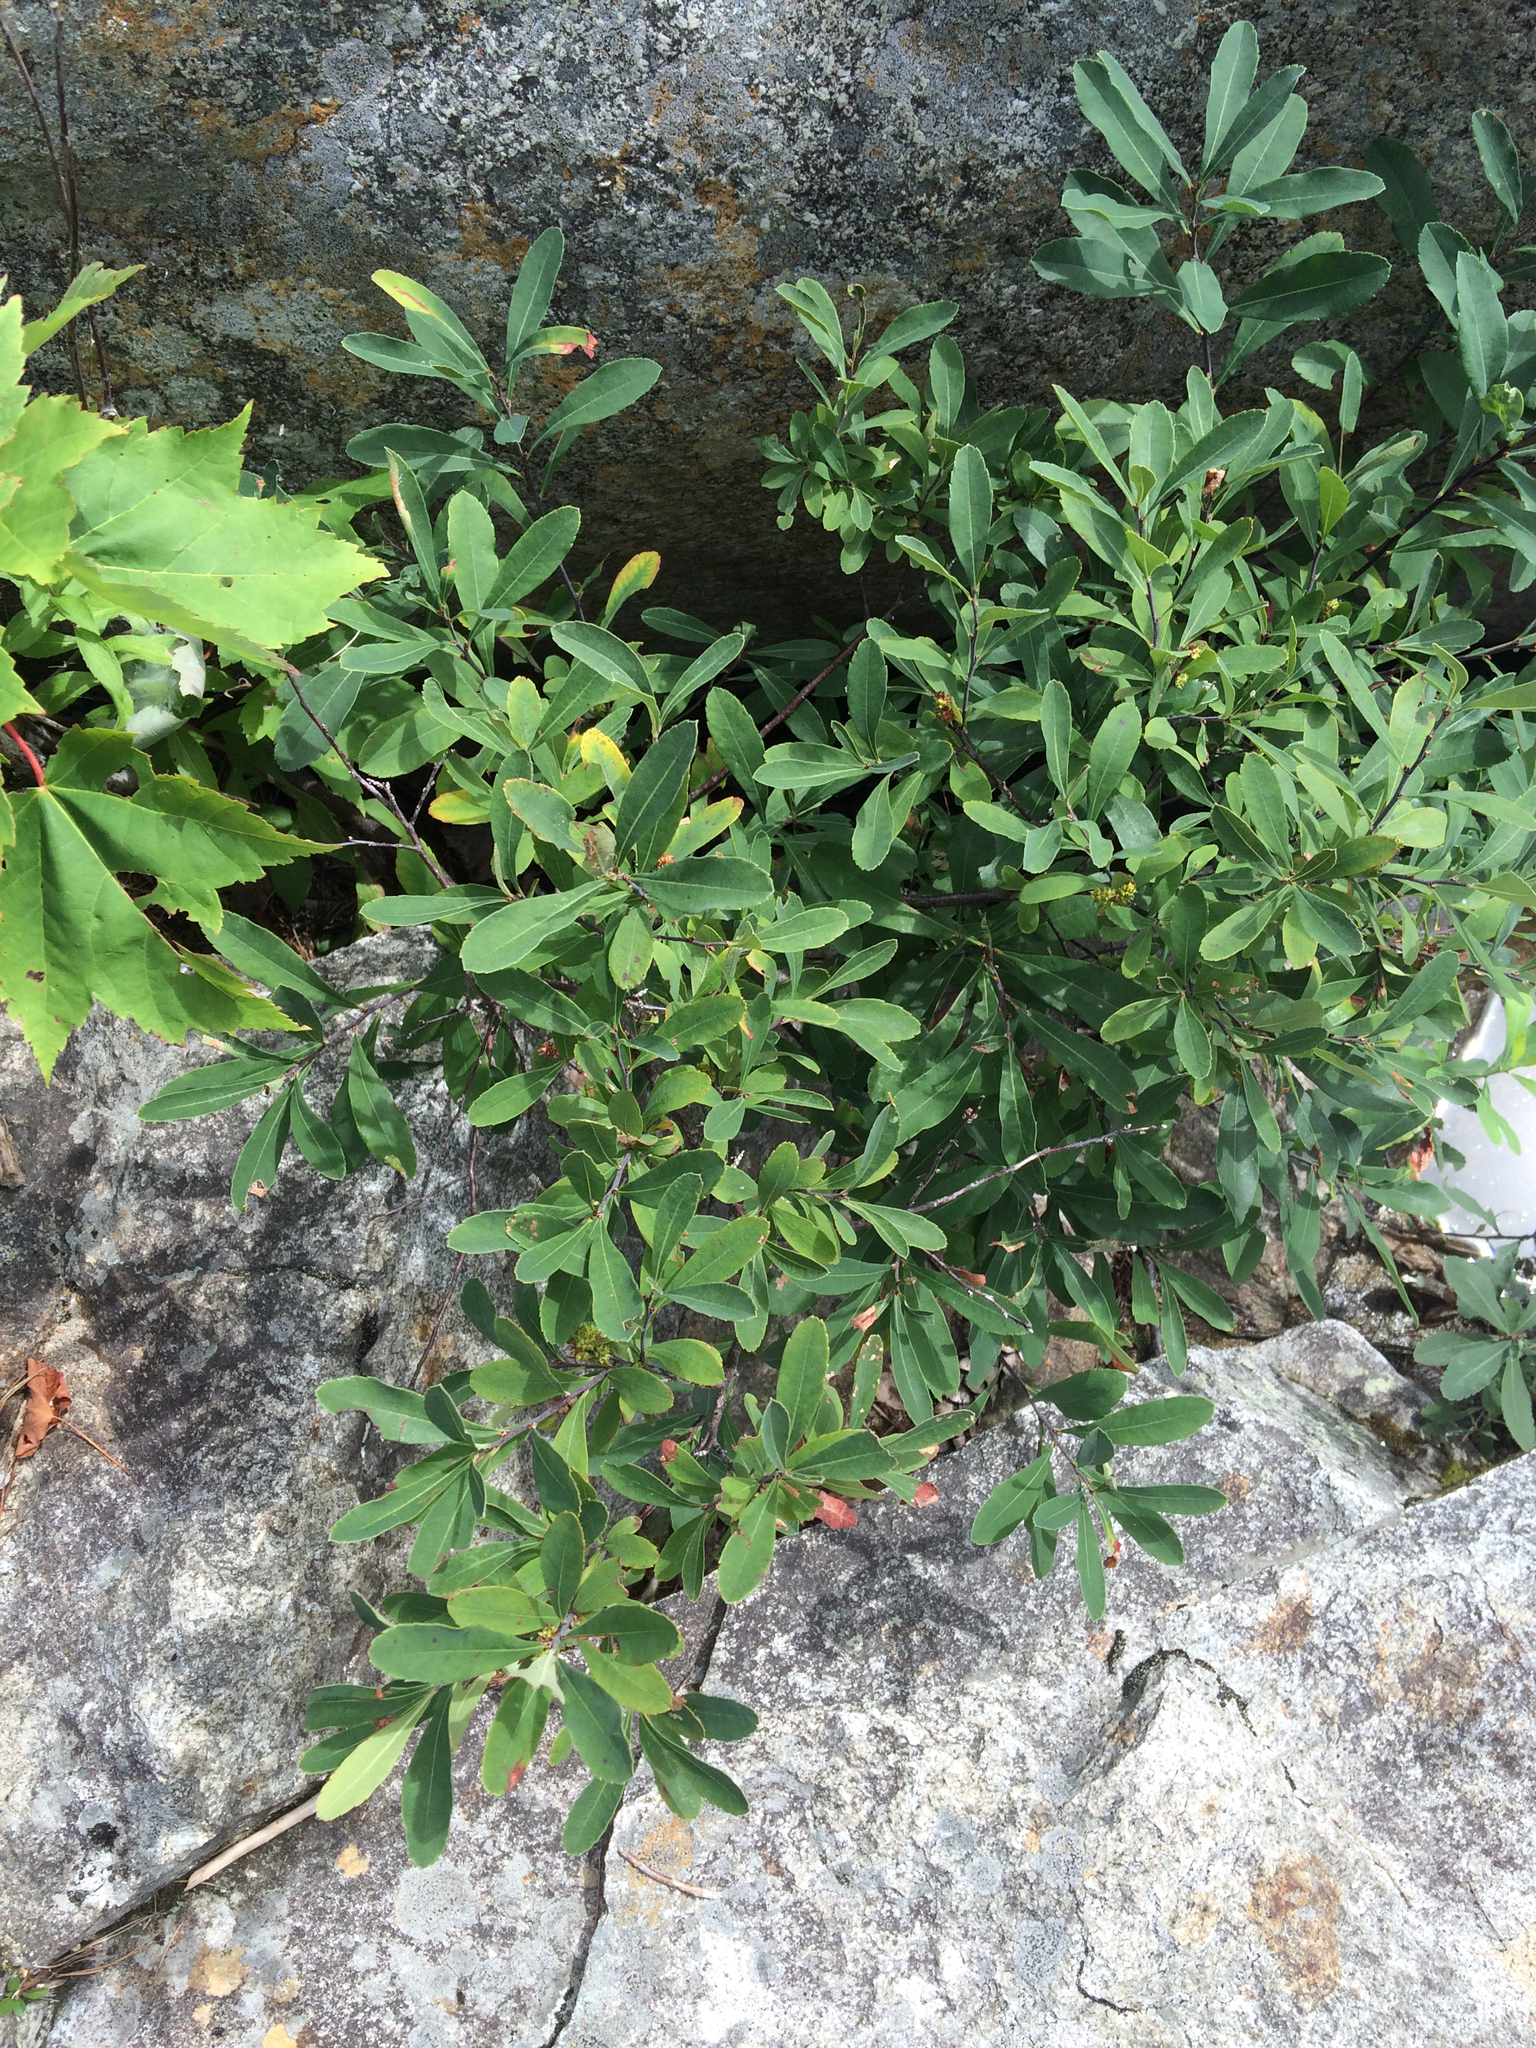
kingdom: Plantae
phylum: Tracheophyta
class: Magnoliopsida
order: Fagales
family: Myricaceae
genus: Myrica
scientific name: Myrica gale
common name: Sweet gale
